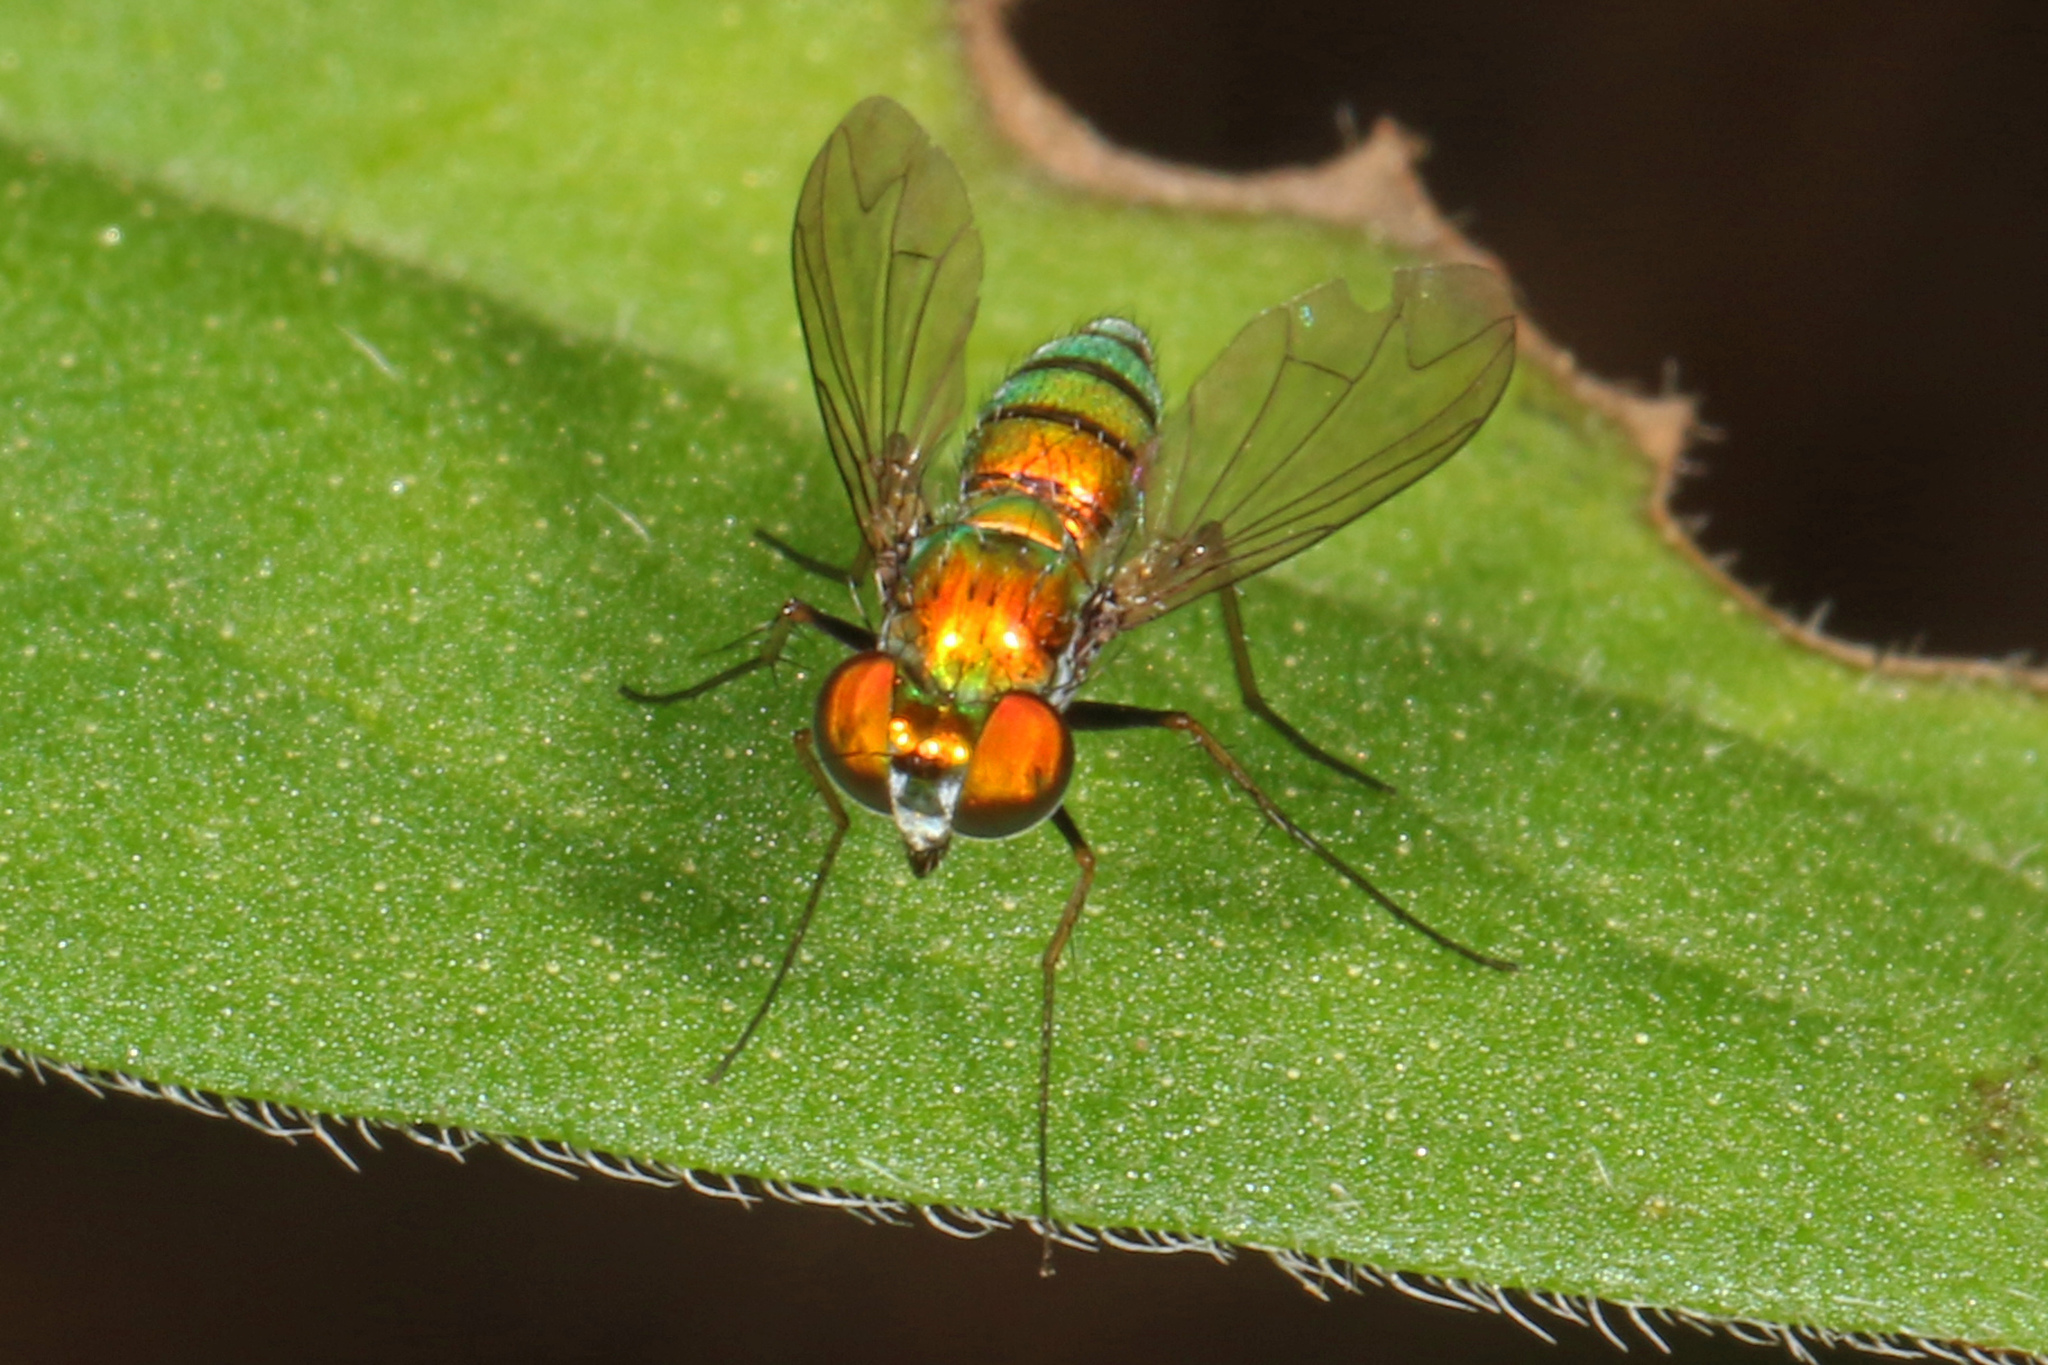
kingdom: Animalia
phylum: Arthropoda
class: Insecta
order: Diptera
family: Dolichopodidae
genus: Condylostylus
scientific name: Condylostylus
